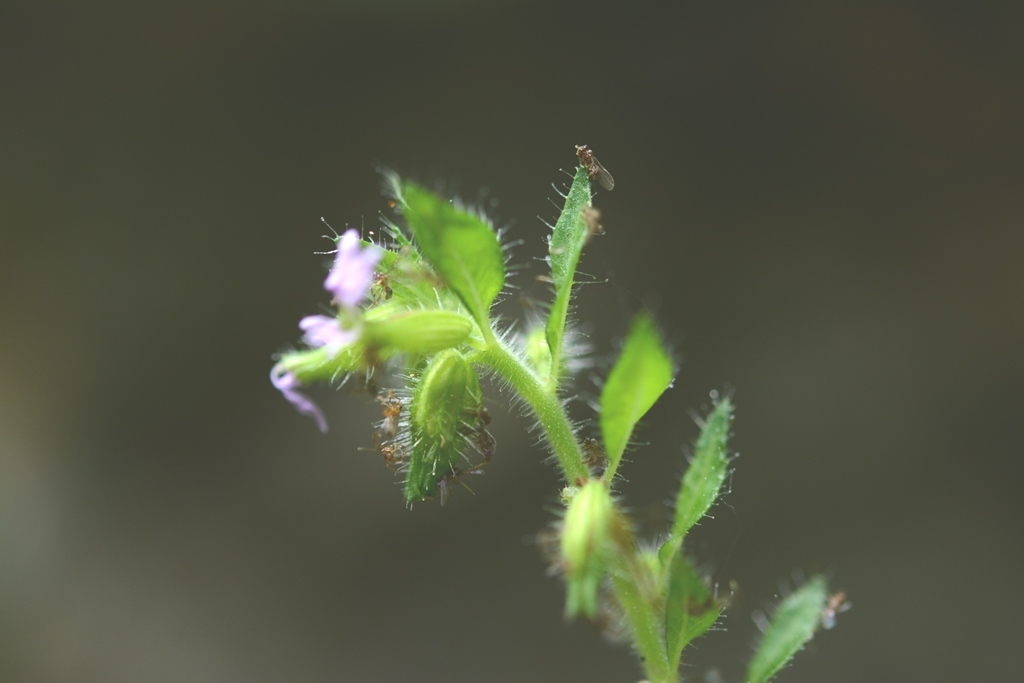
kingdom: Plantae
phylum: Tracheophyta
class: Magnoliopsida
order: Myrtales
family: Lythraceae
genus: Cuphea
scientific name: Cuphea leptopoda
